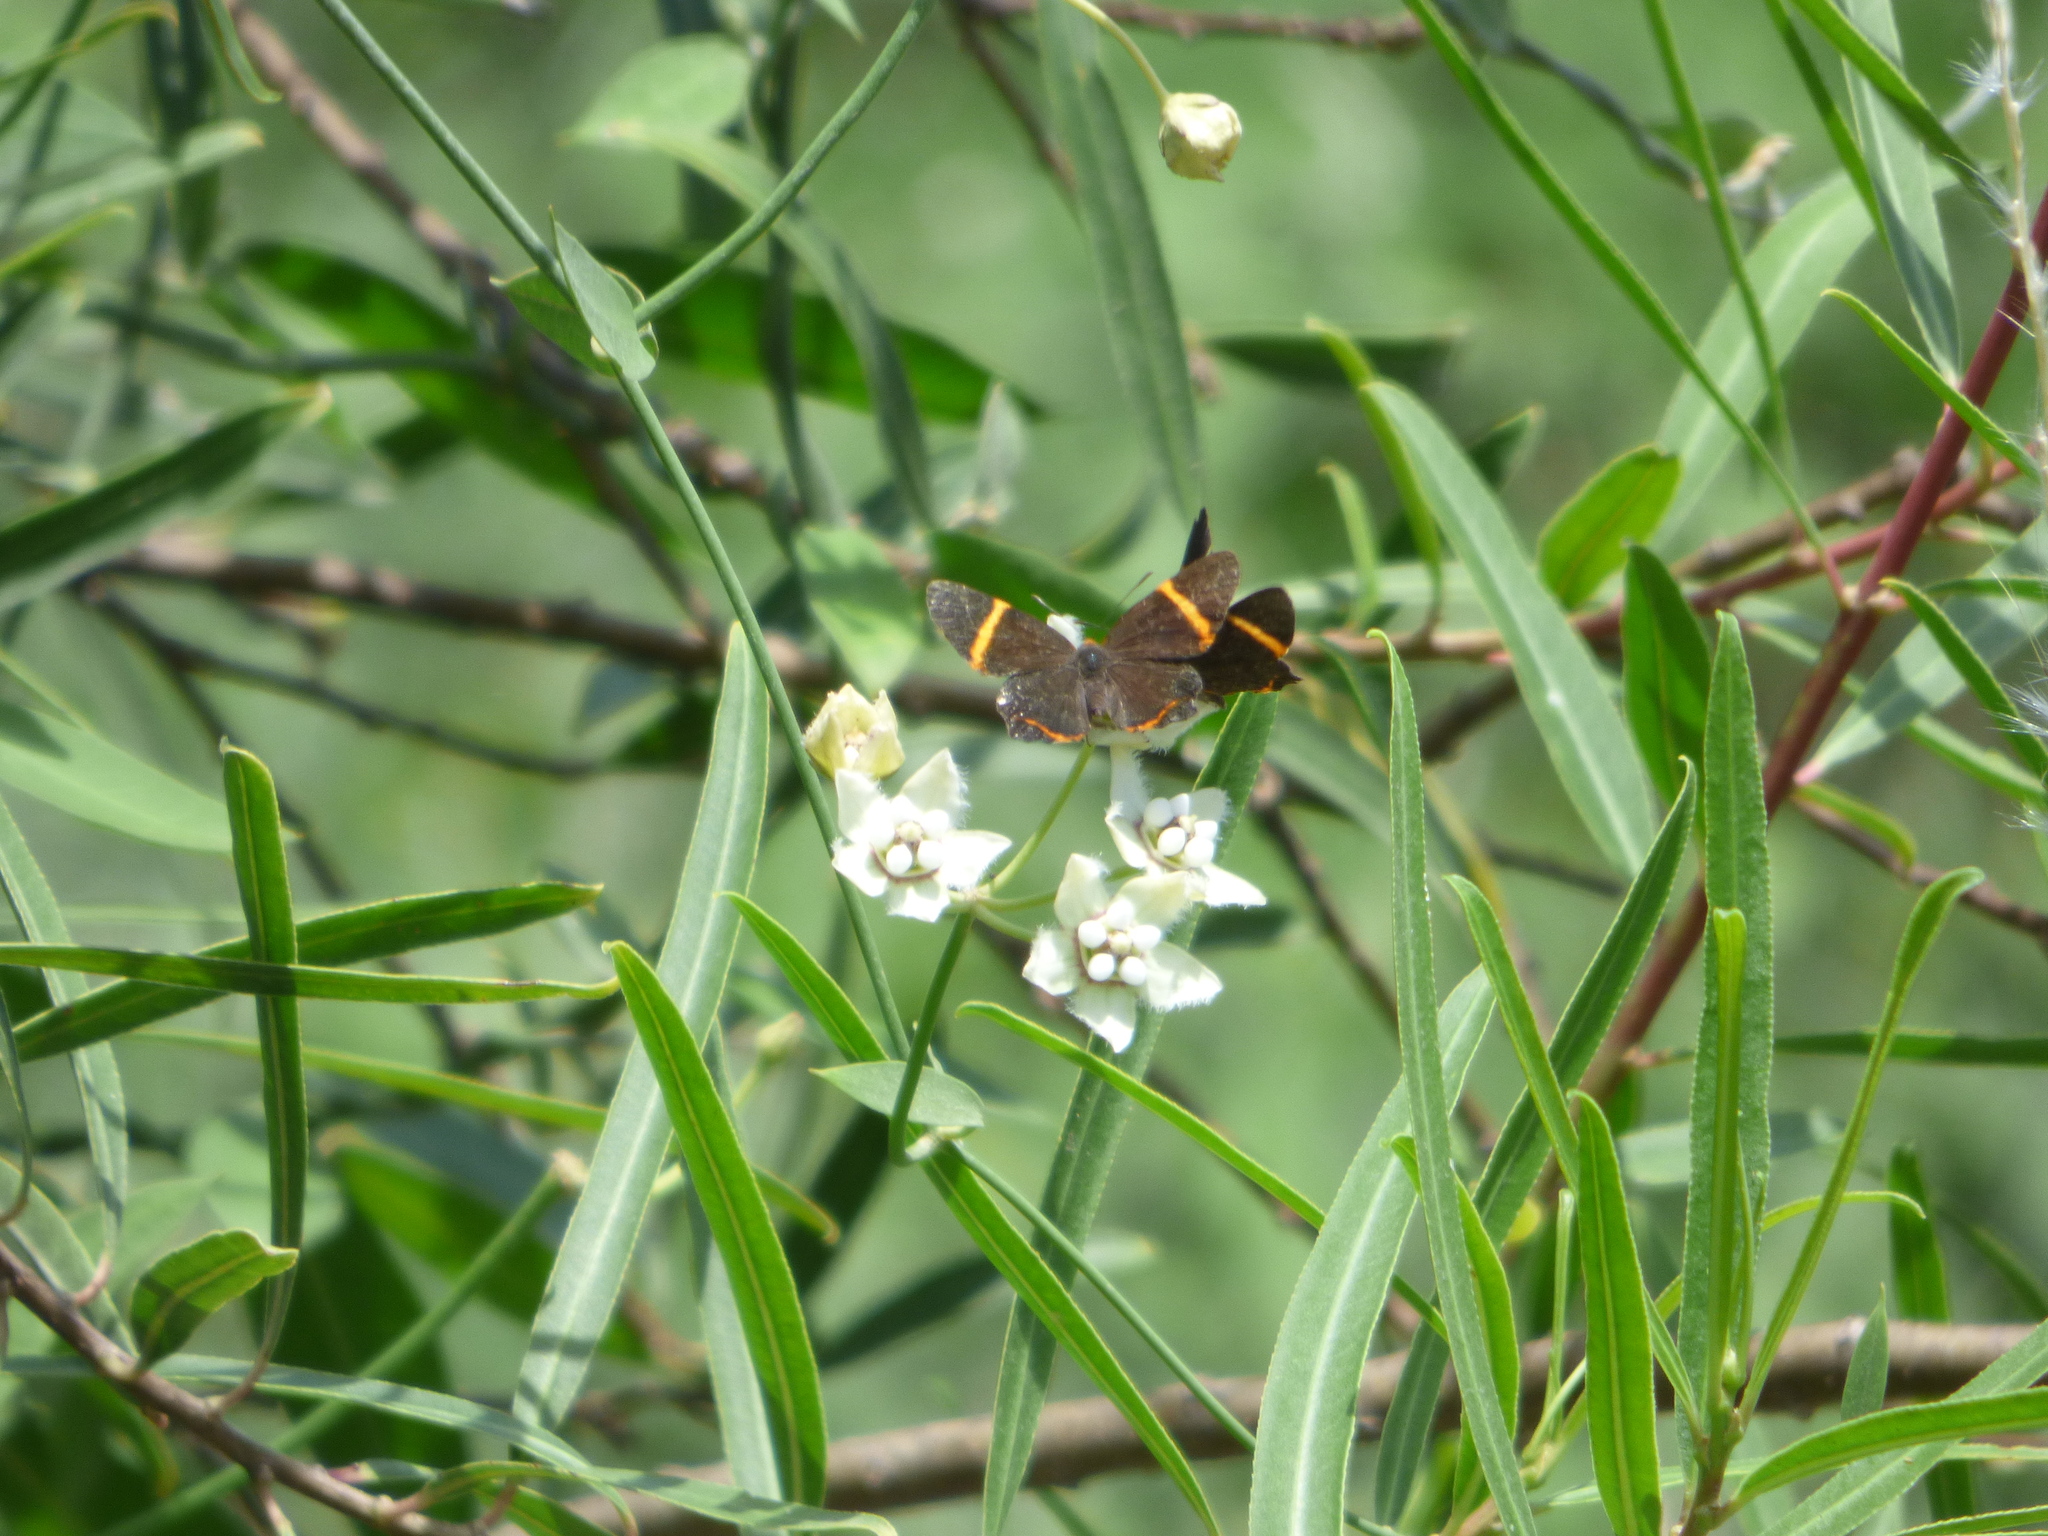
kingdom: Animalia
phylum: Arthropoda
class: Insecta
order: Lepidoptera
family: Riodinidae
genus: Riodina
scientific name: Riodina lysippoides
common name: Little dancer metalmark
